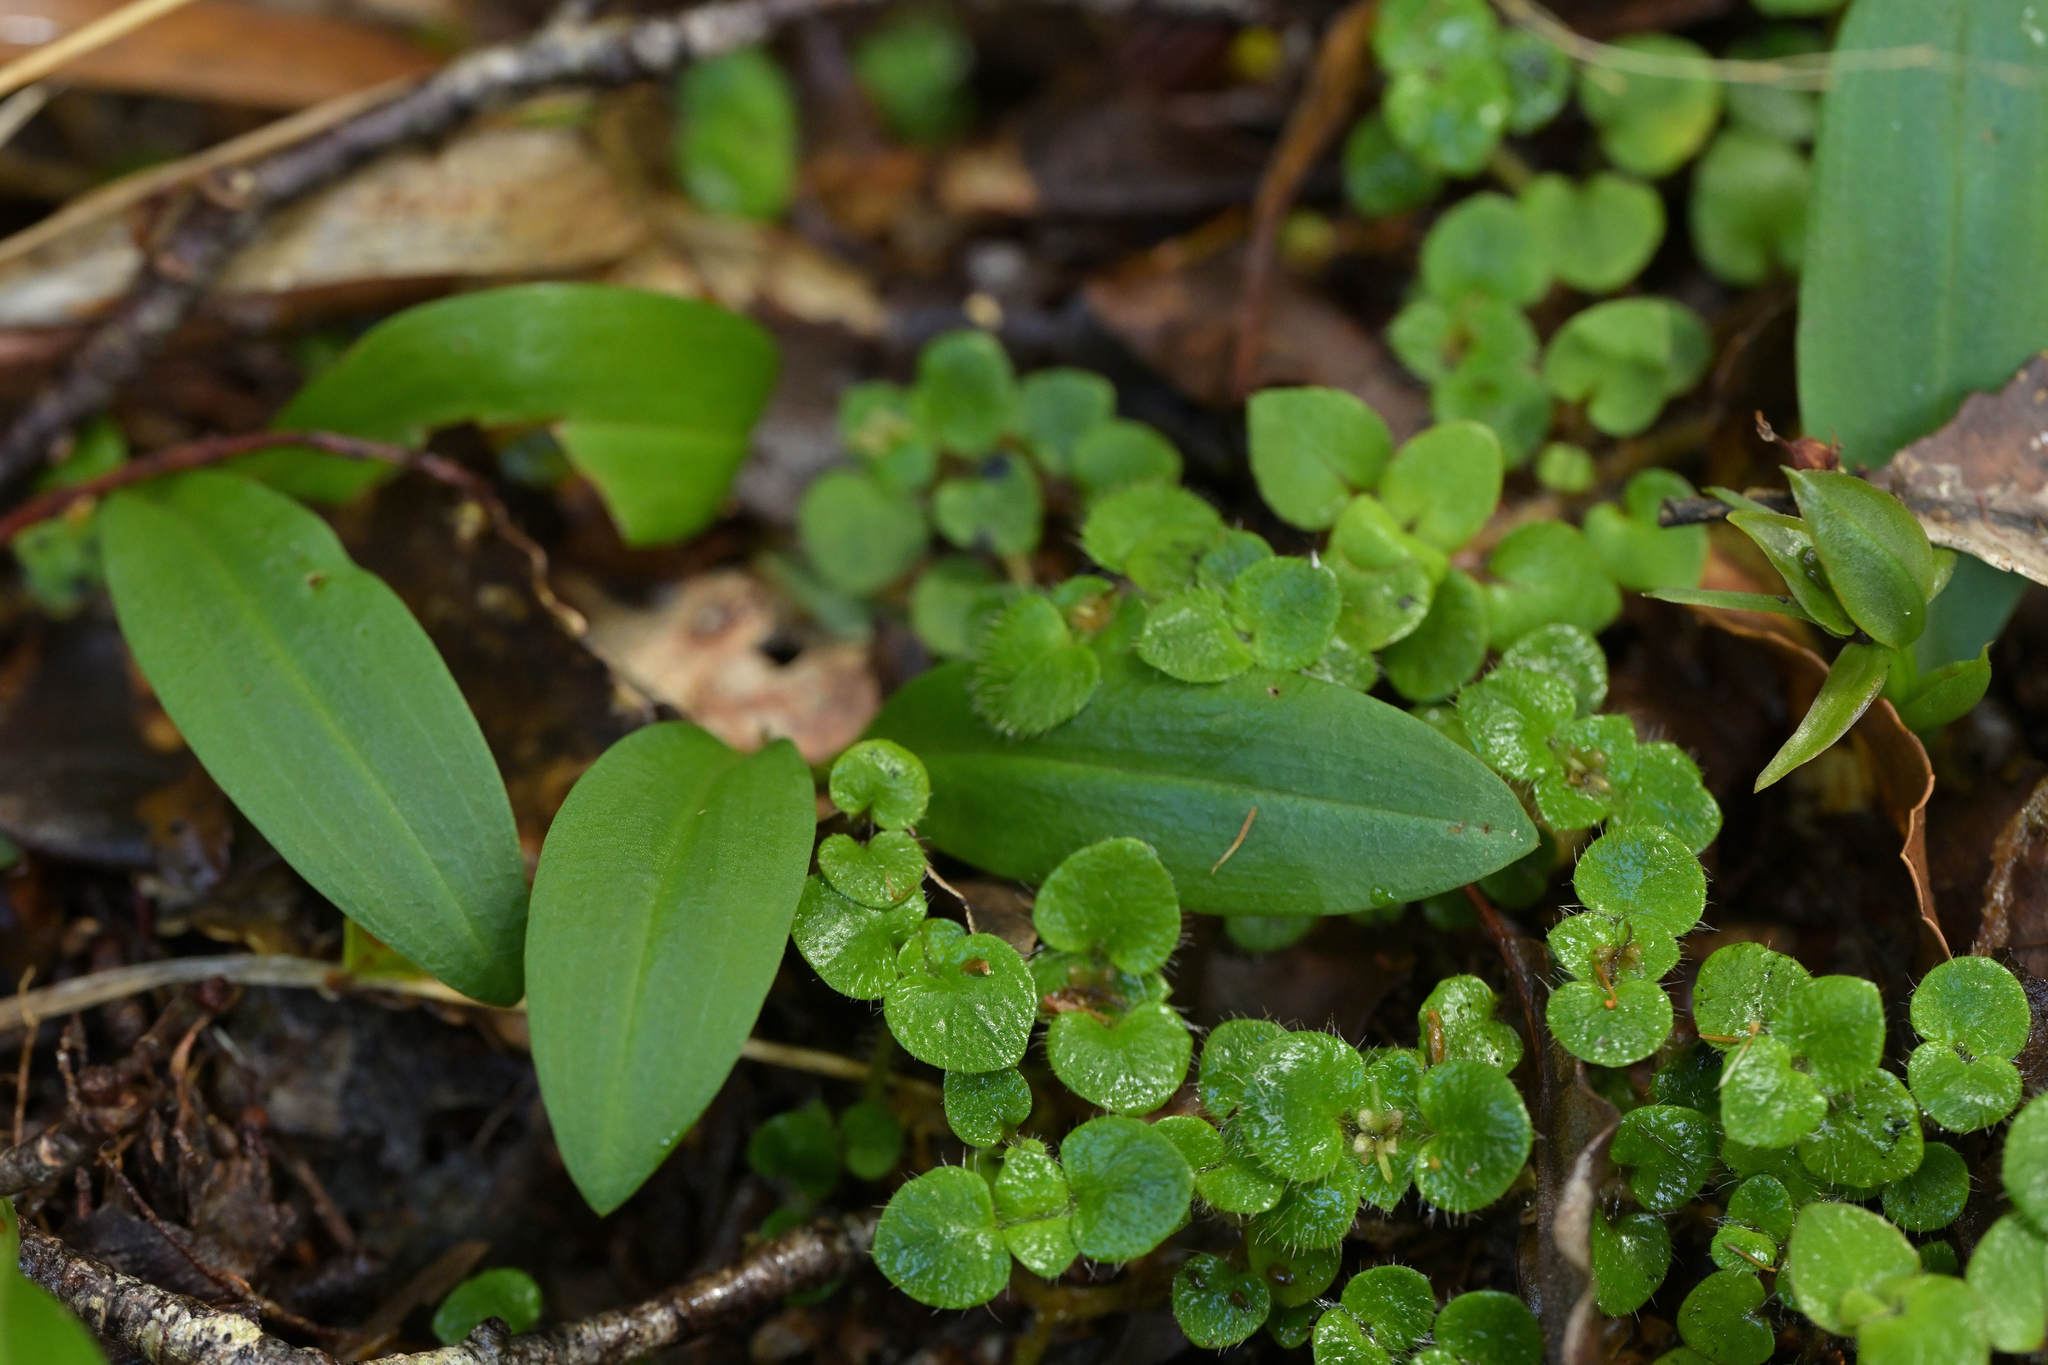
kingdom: Plantae
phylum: Tracheophyta
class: Liliopsida
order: Asparagales
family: Orchidaceae
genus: Chiloglottis
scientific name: Chiloglottis cornuta
